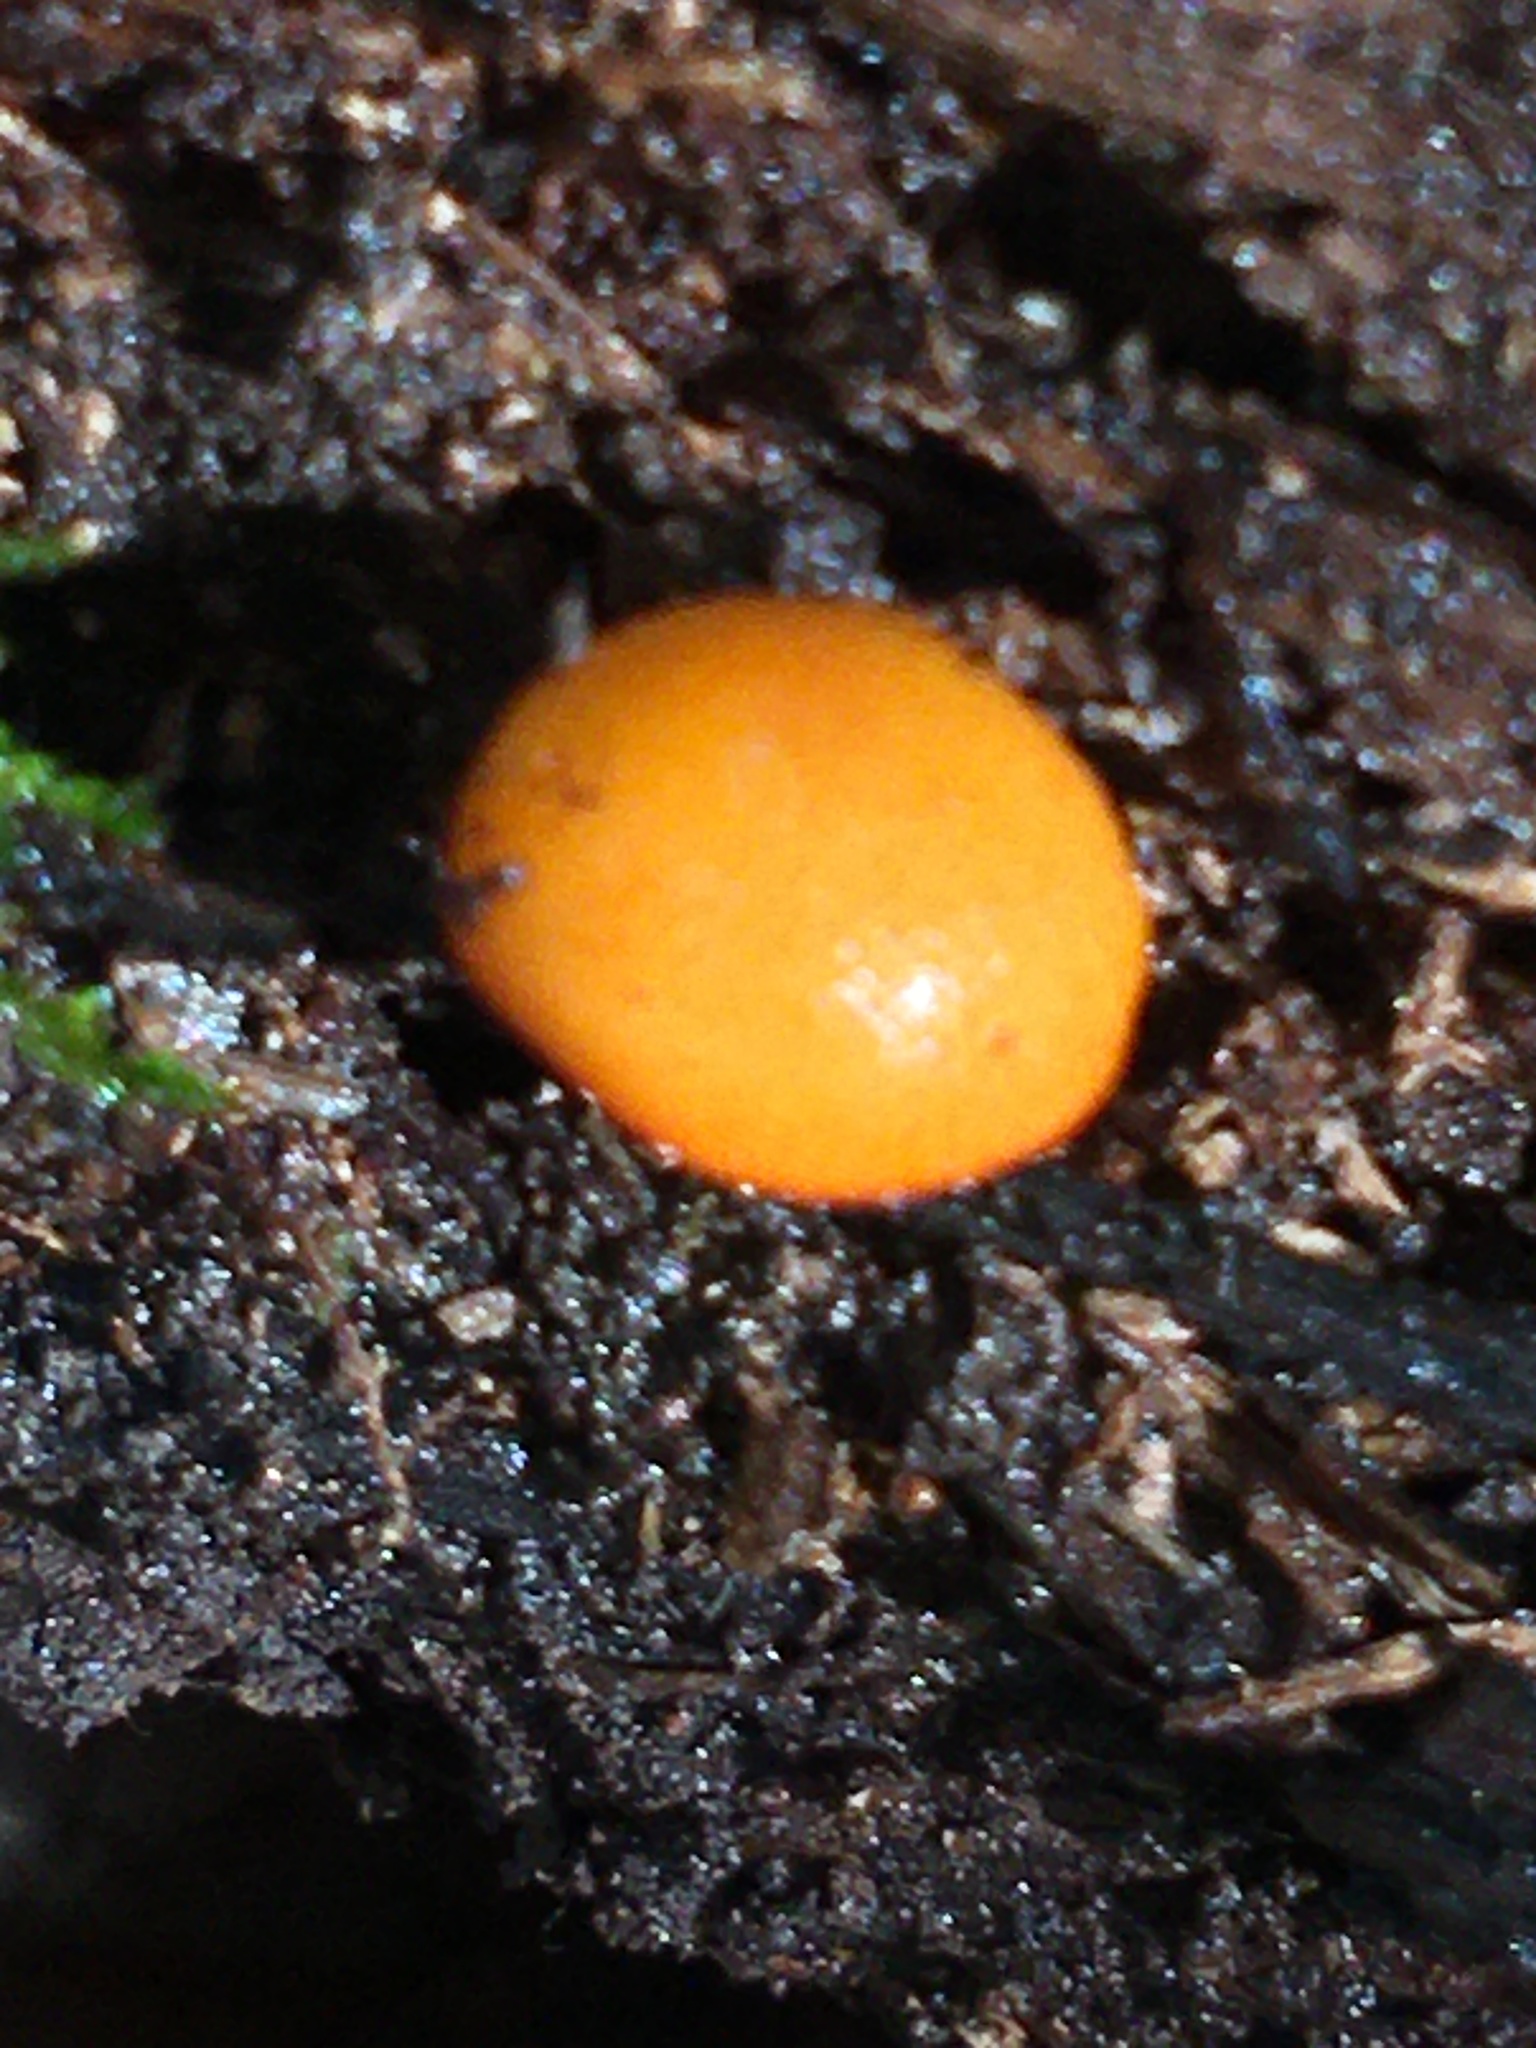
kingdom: Fungi
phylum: Basidiomycota
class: Agaricomycetes
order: Agaricales
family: Mycenaceae
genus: Mycena
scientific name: Mycena leaiana
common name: Orange mycena
